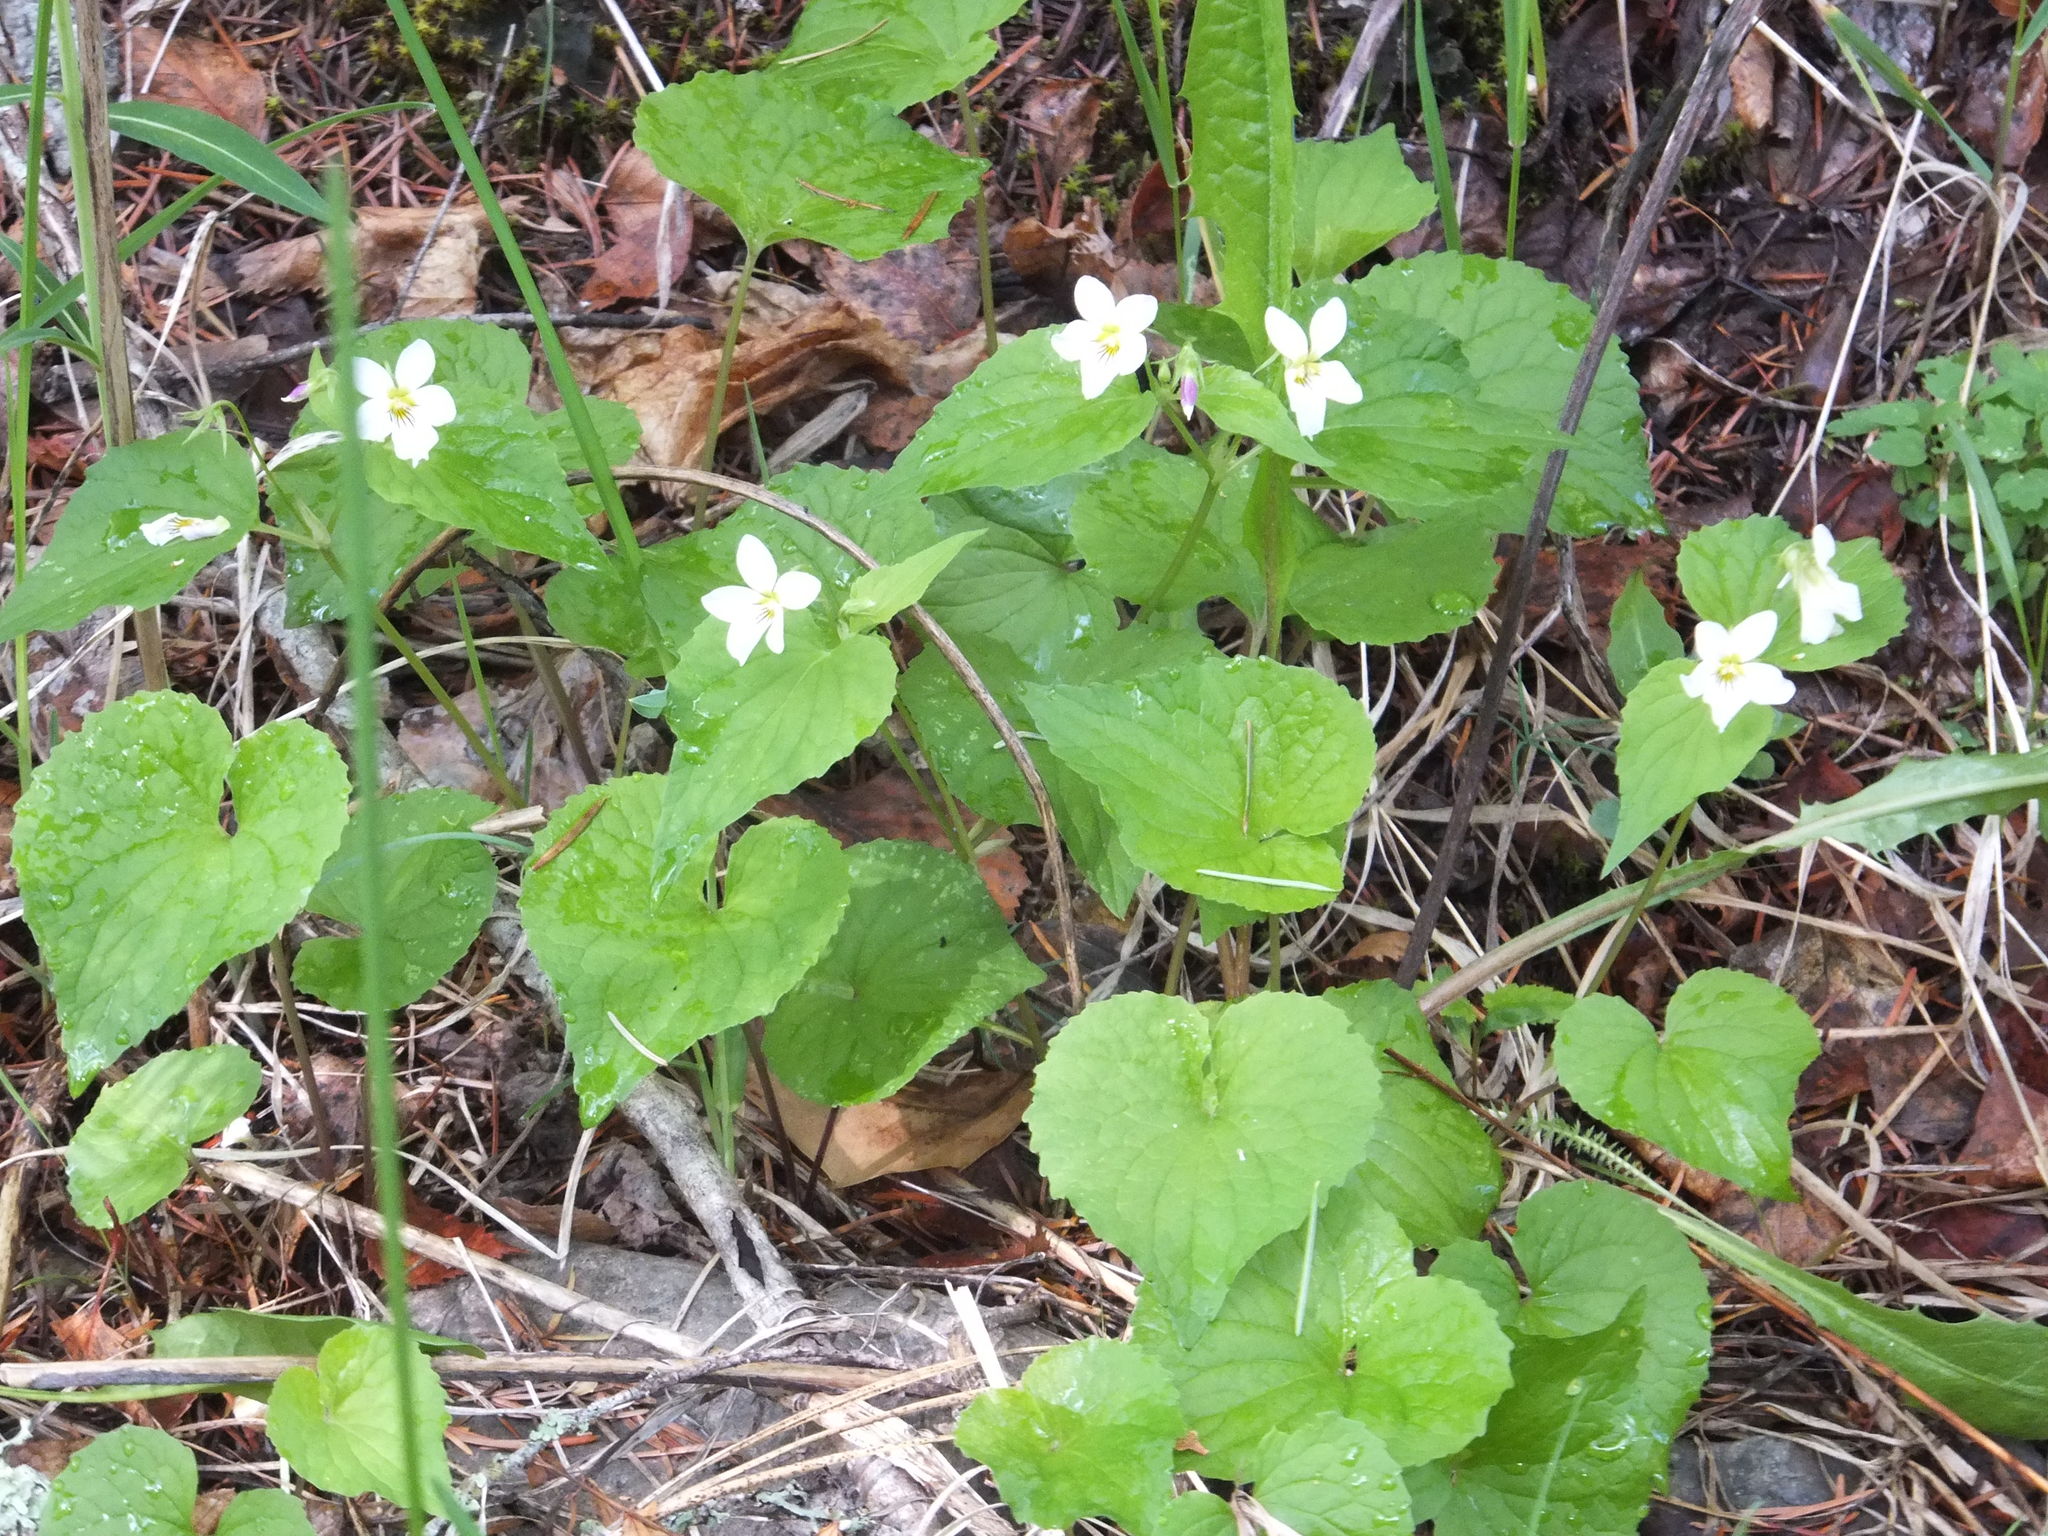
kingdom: Plantae
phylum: Tracheophyta
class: Magnoliopsida
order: Malpighiales
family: Violaceae
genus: Viola
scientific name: Viola canadensis
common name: Canada violet
